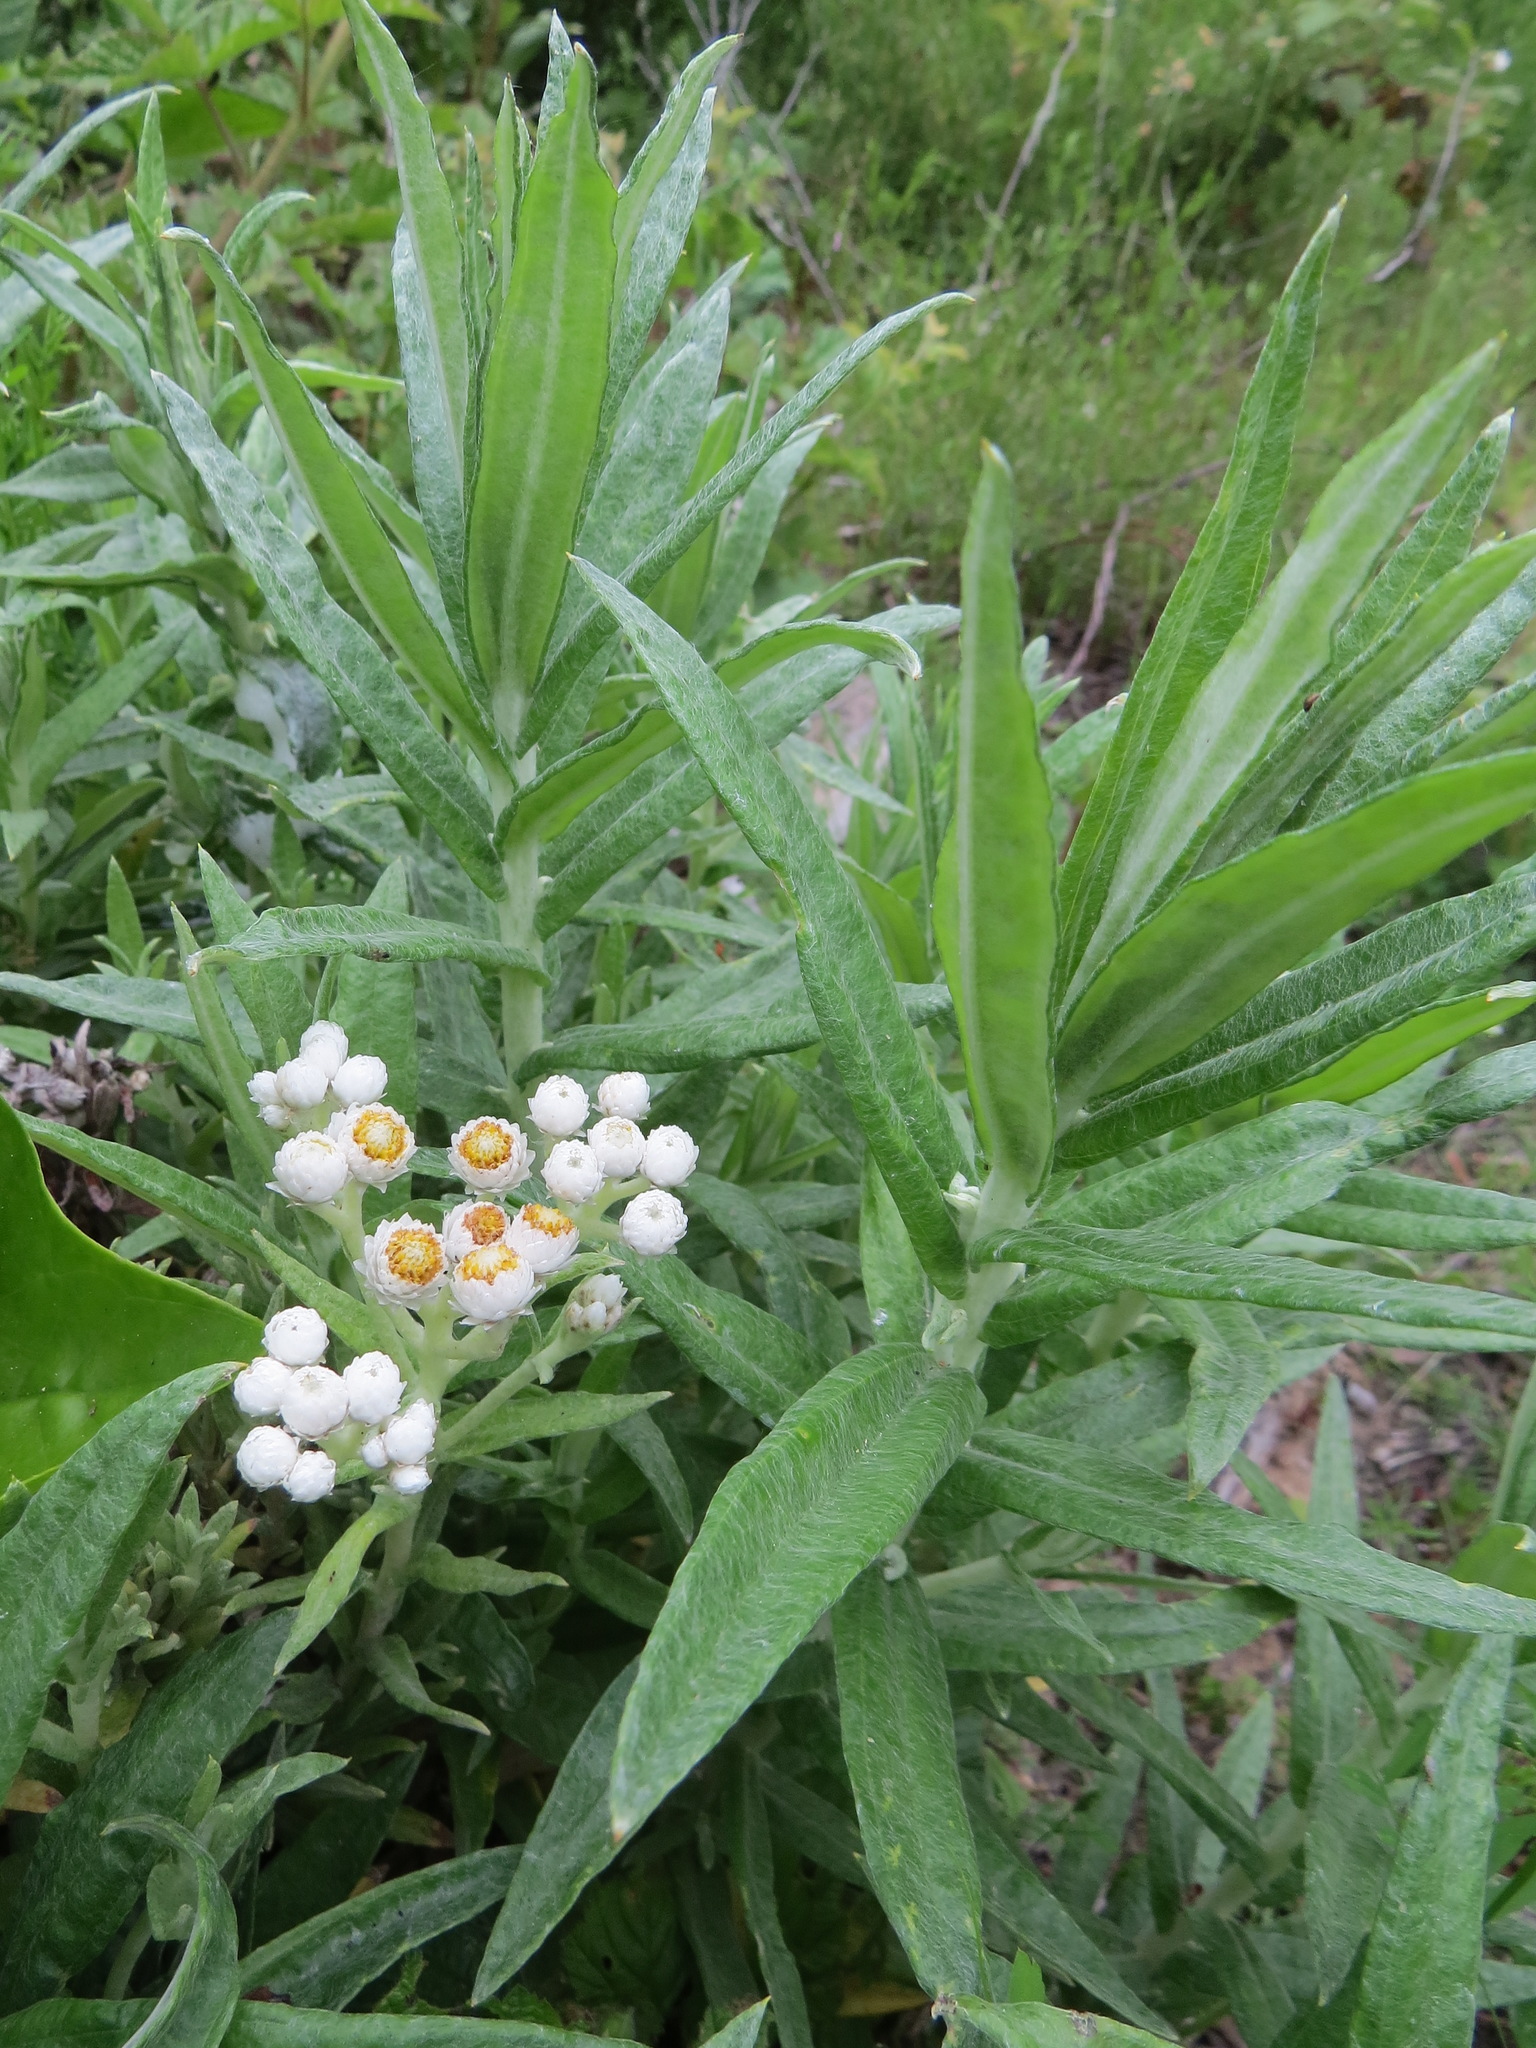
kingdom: Plantae
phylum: Tracheophyta
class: Magnoliopsida
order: Asterales
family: Asteraceae
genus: Anaphalis
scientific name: Anaphalis margaritacea
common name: Pearly everlasting
